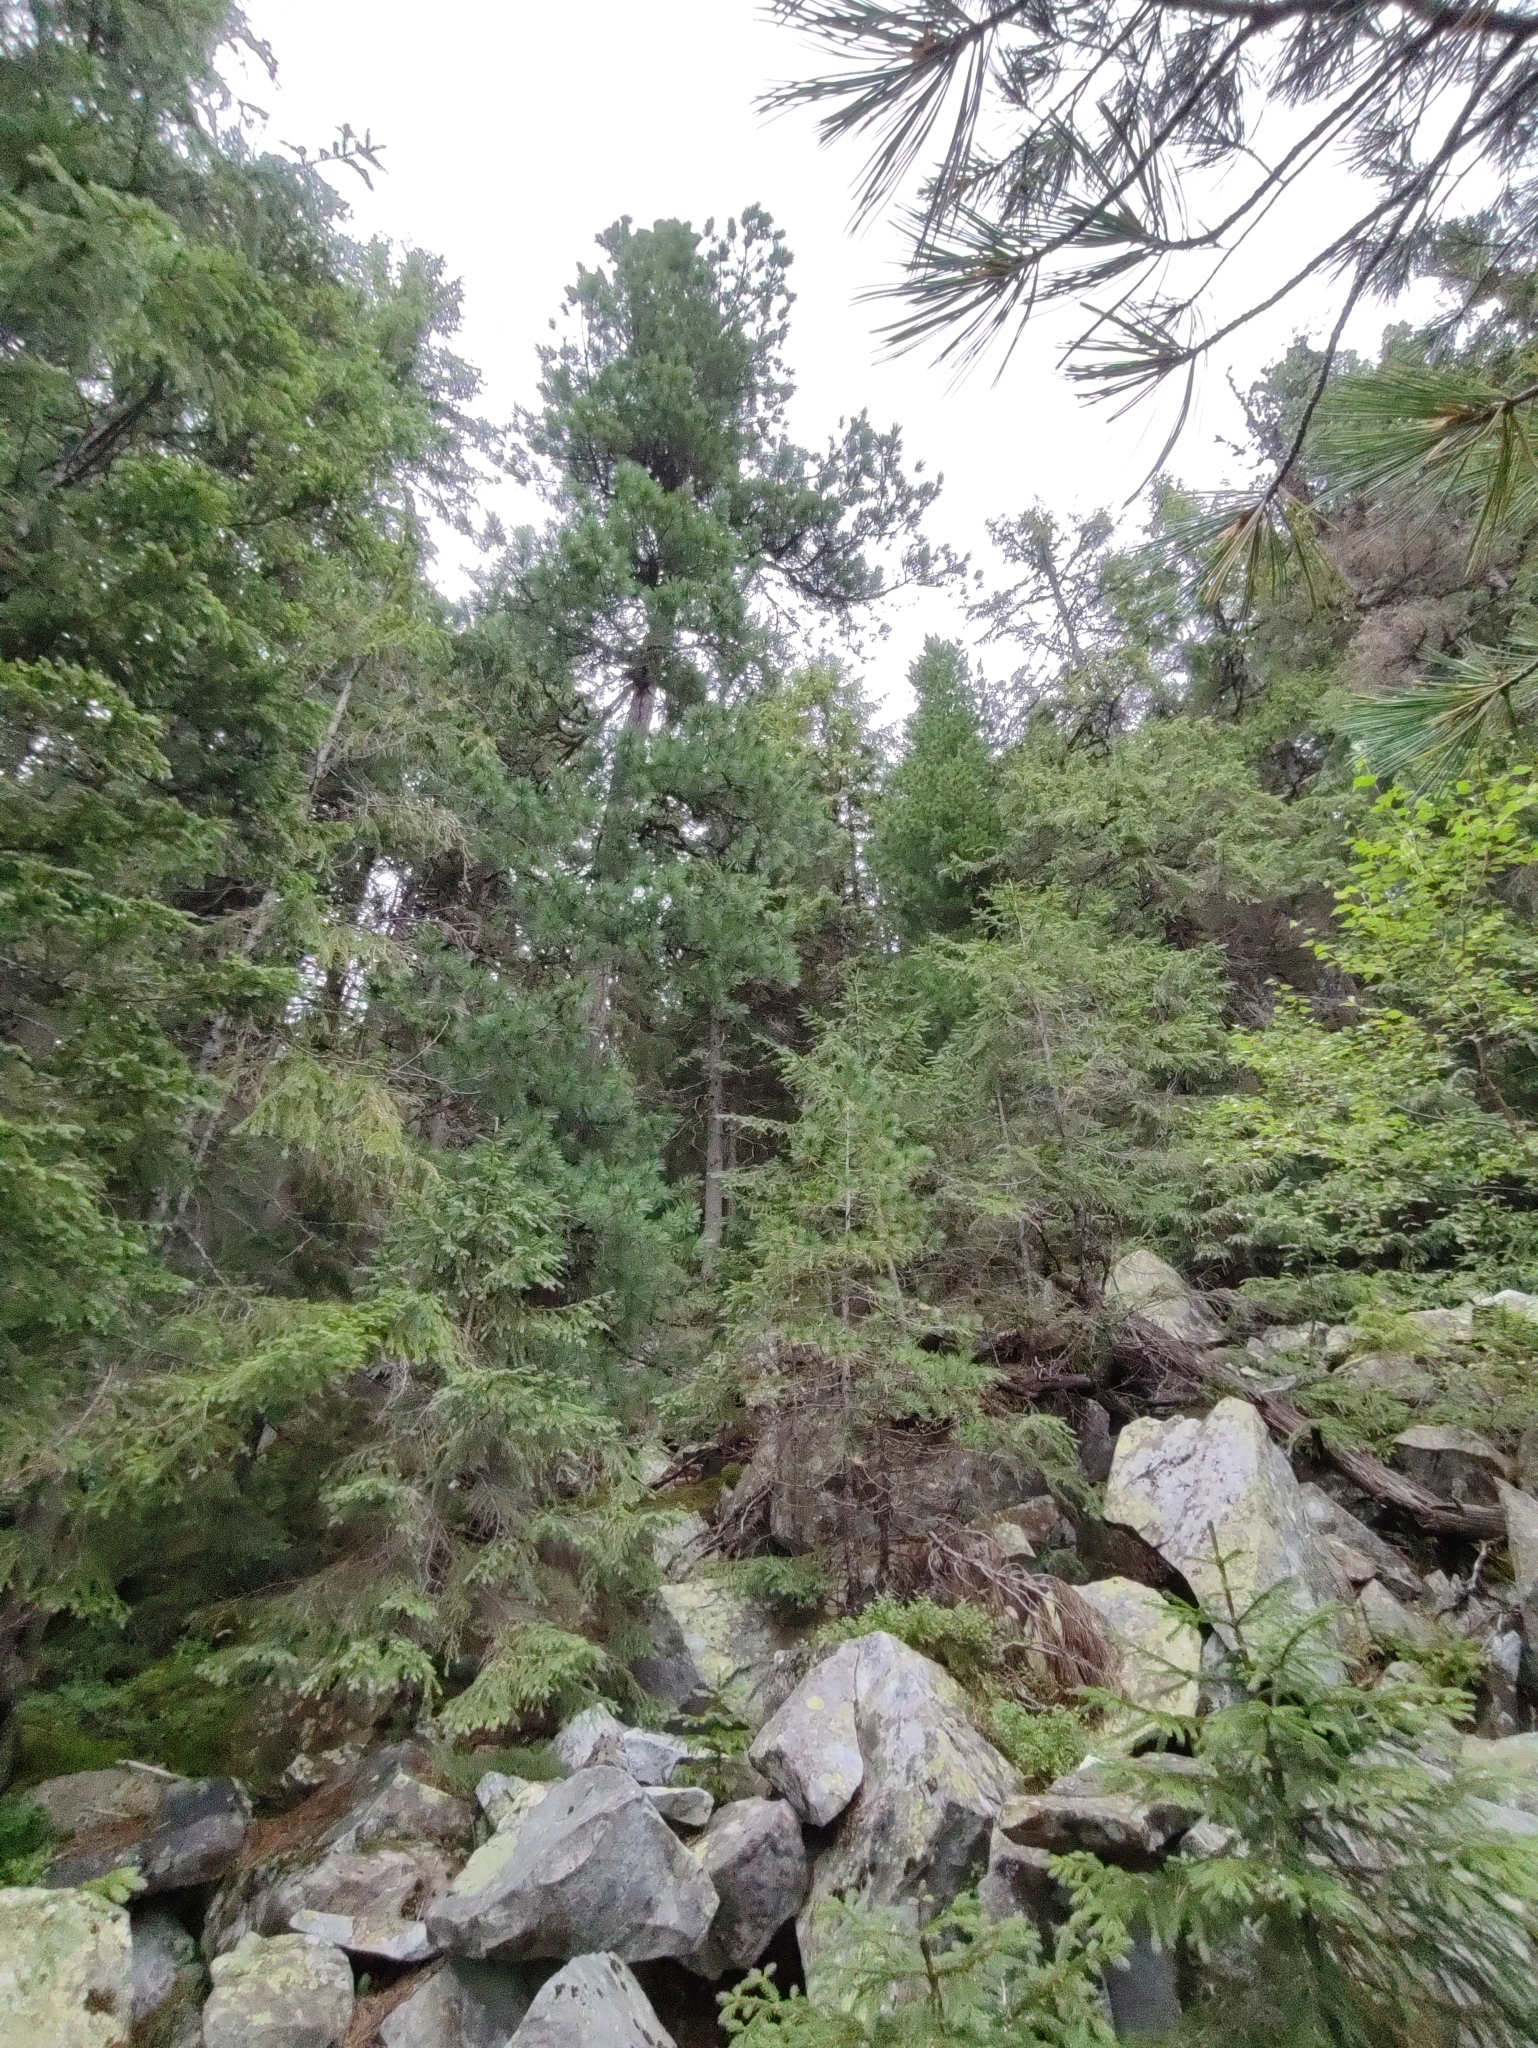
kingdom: Plantae
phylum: Tracheophyta
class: Pinopsida
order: Pinales
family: Pinaceae
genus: Pinus
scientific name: Pinus cembra
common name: Arolla pine
